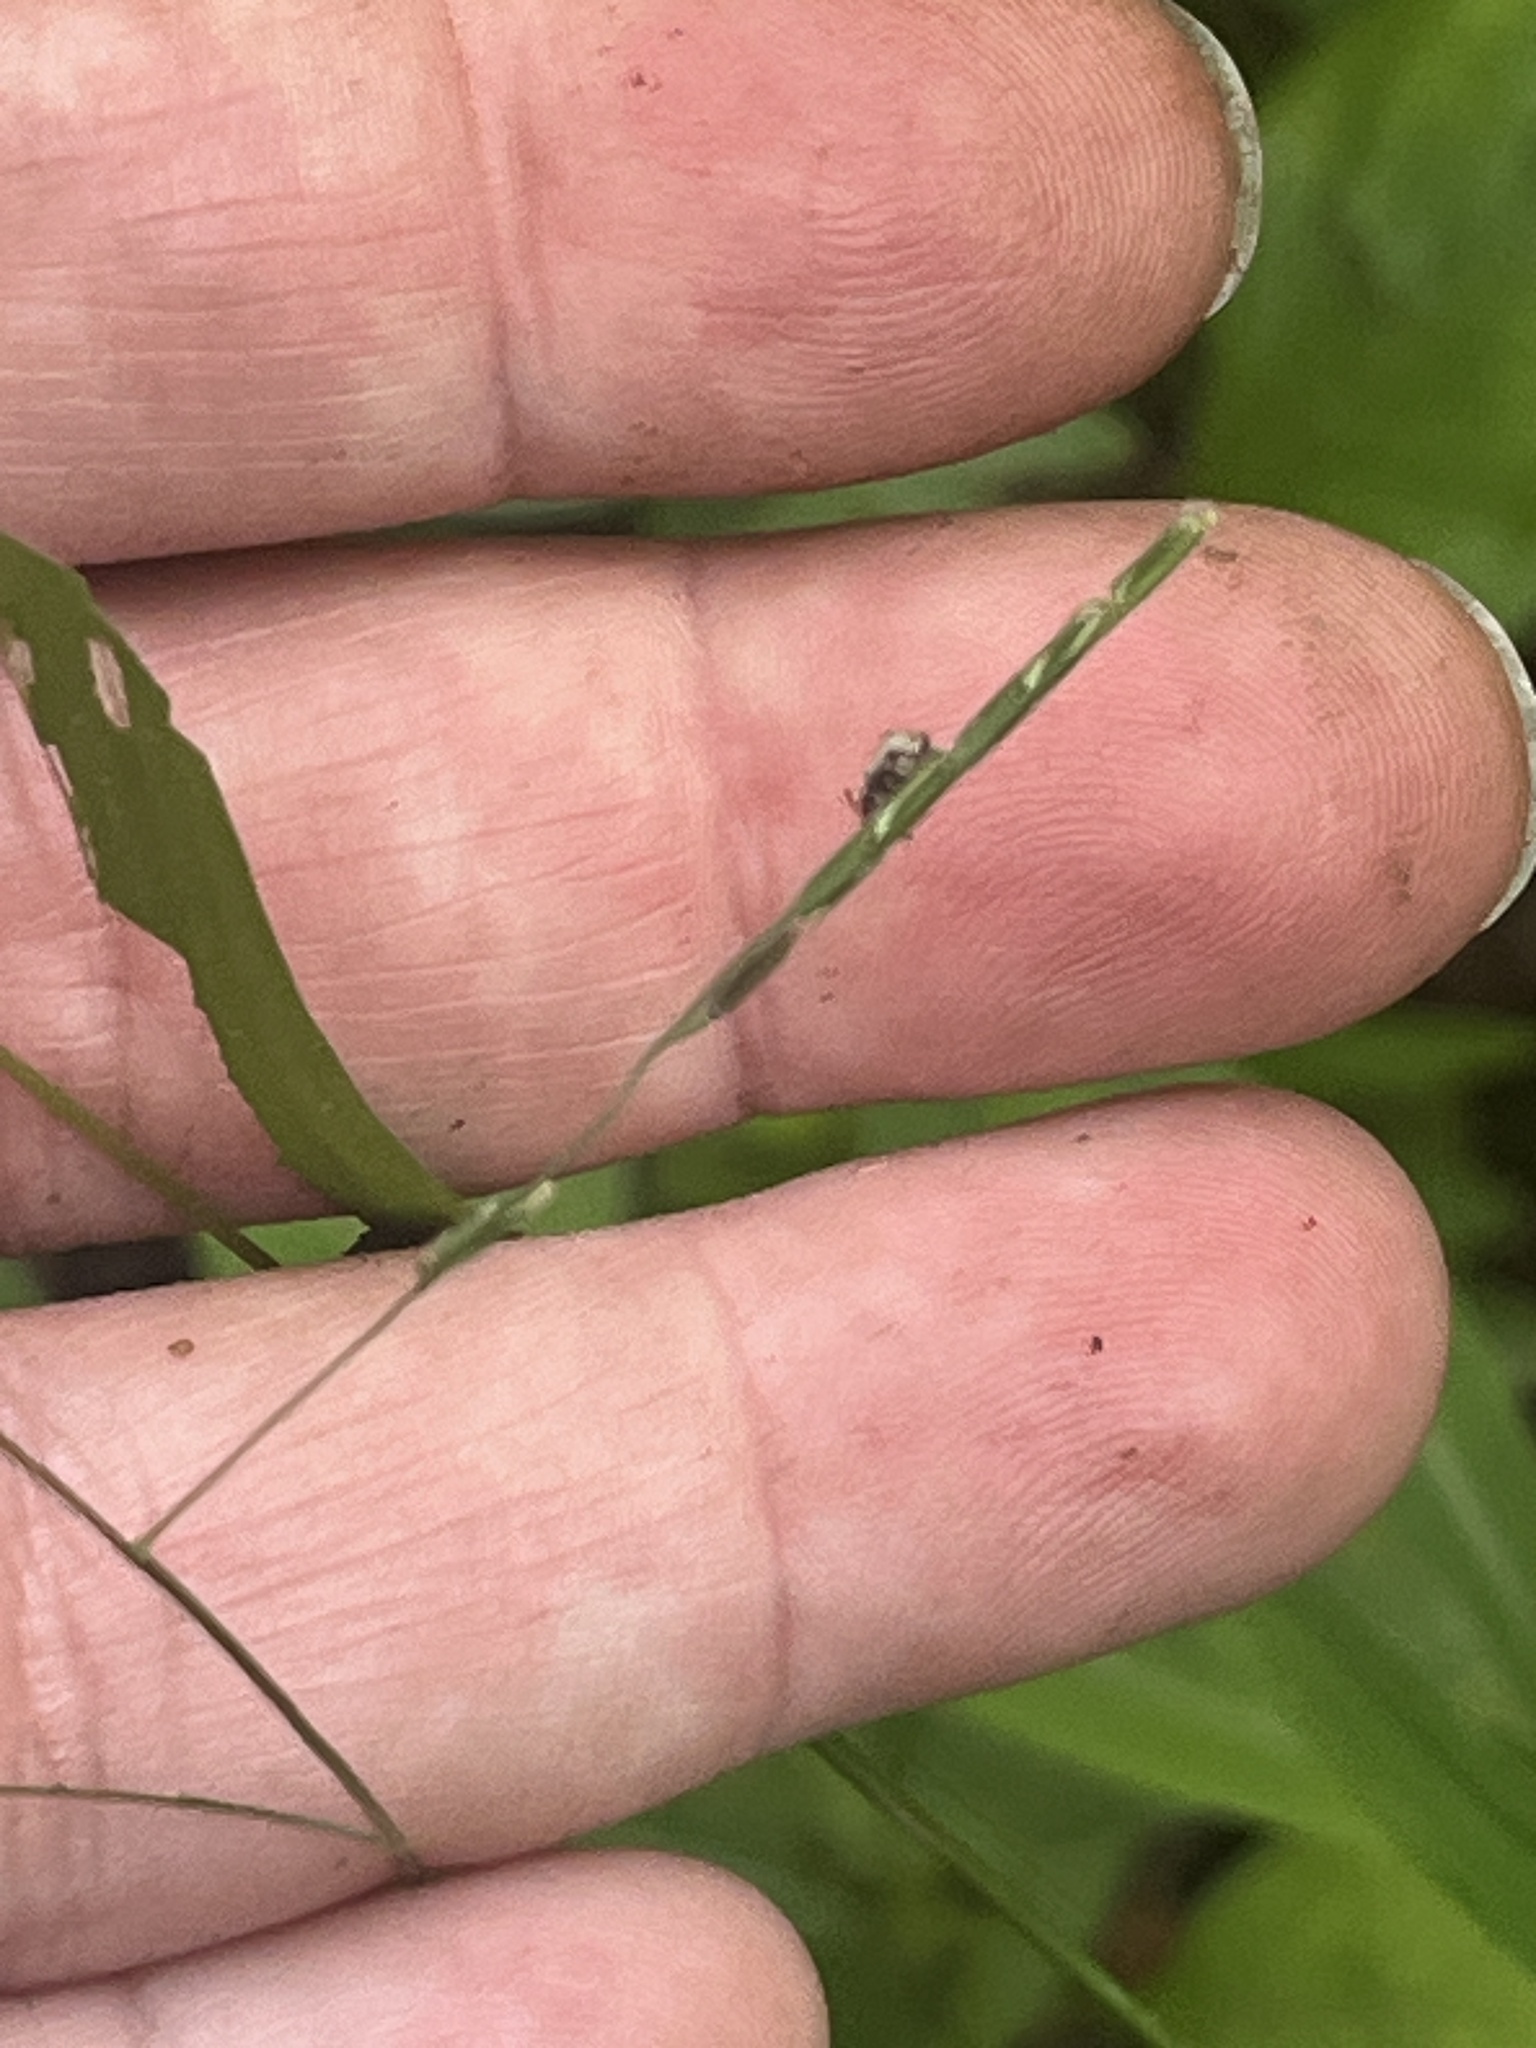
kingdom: Plantae
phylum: Tracheophyta
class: Liliopsida
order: Poales
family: Poaceae
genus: Leersia
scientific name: Leersia virginica
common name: White cutgrass
